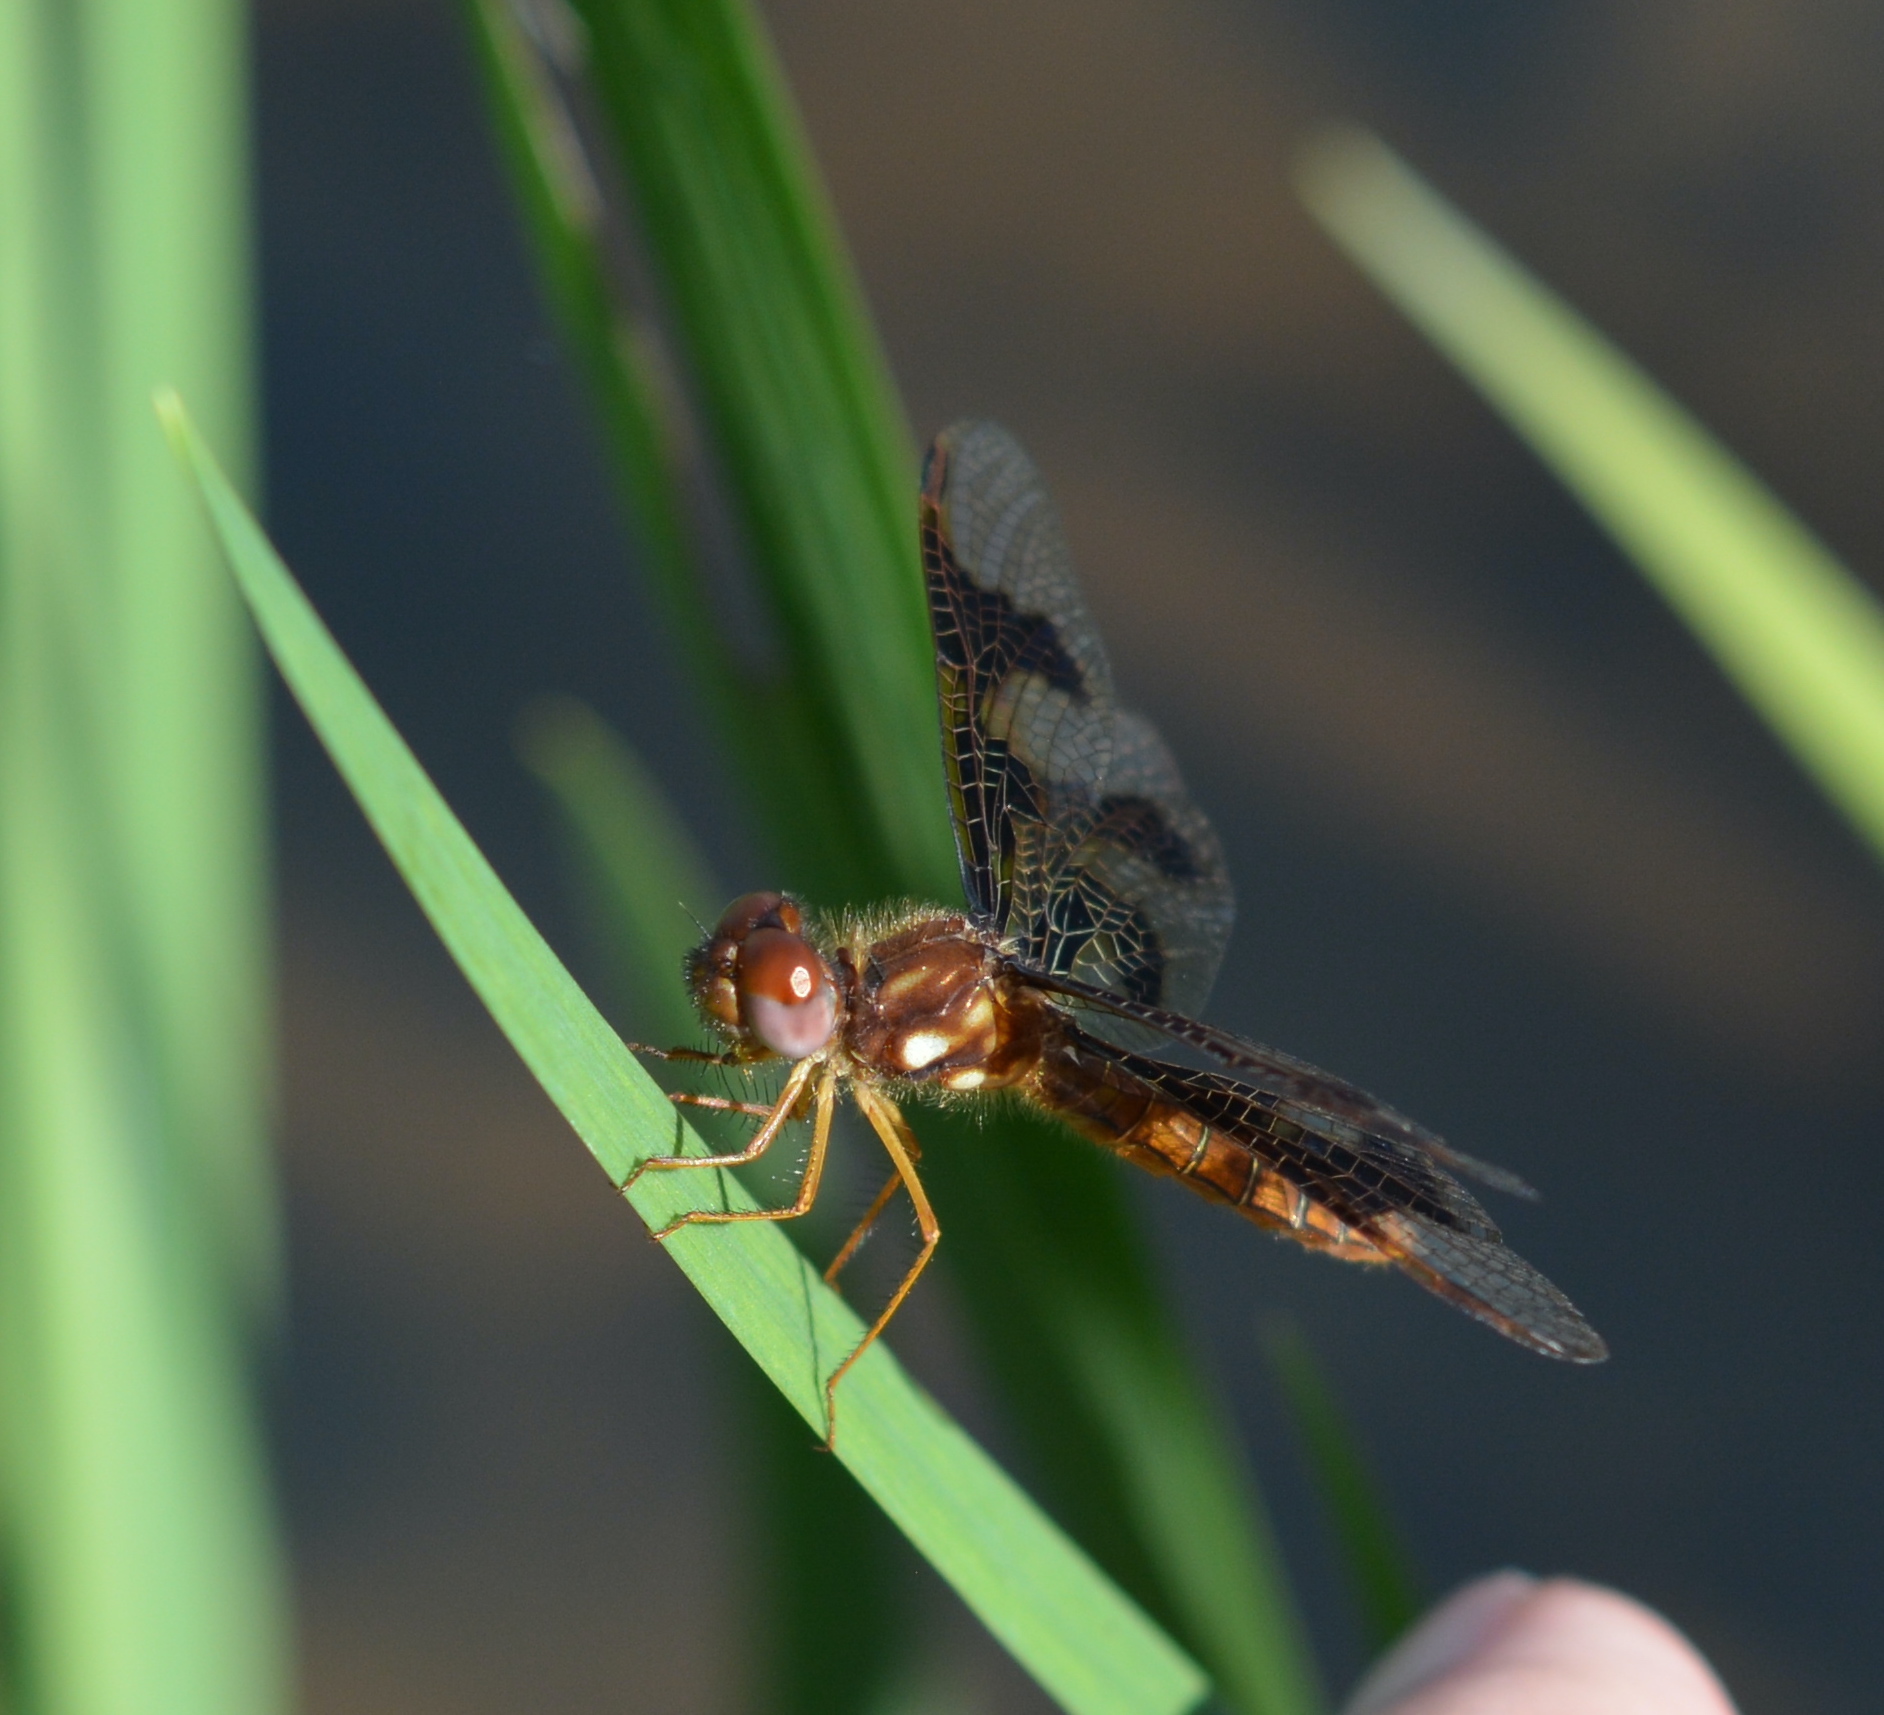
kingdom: Animalia
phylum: Arthropoda
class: Insecta
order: Odonata
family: Libellulidae
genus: Perithemis
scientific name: Perithemis tenera
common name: Eastern amberwing
